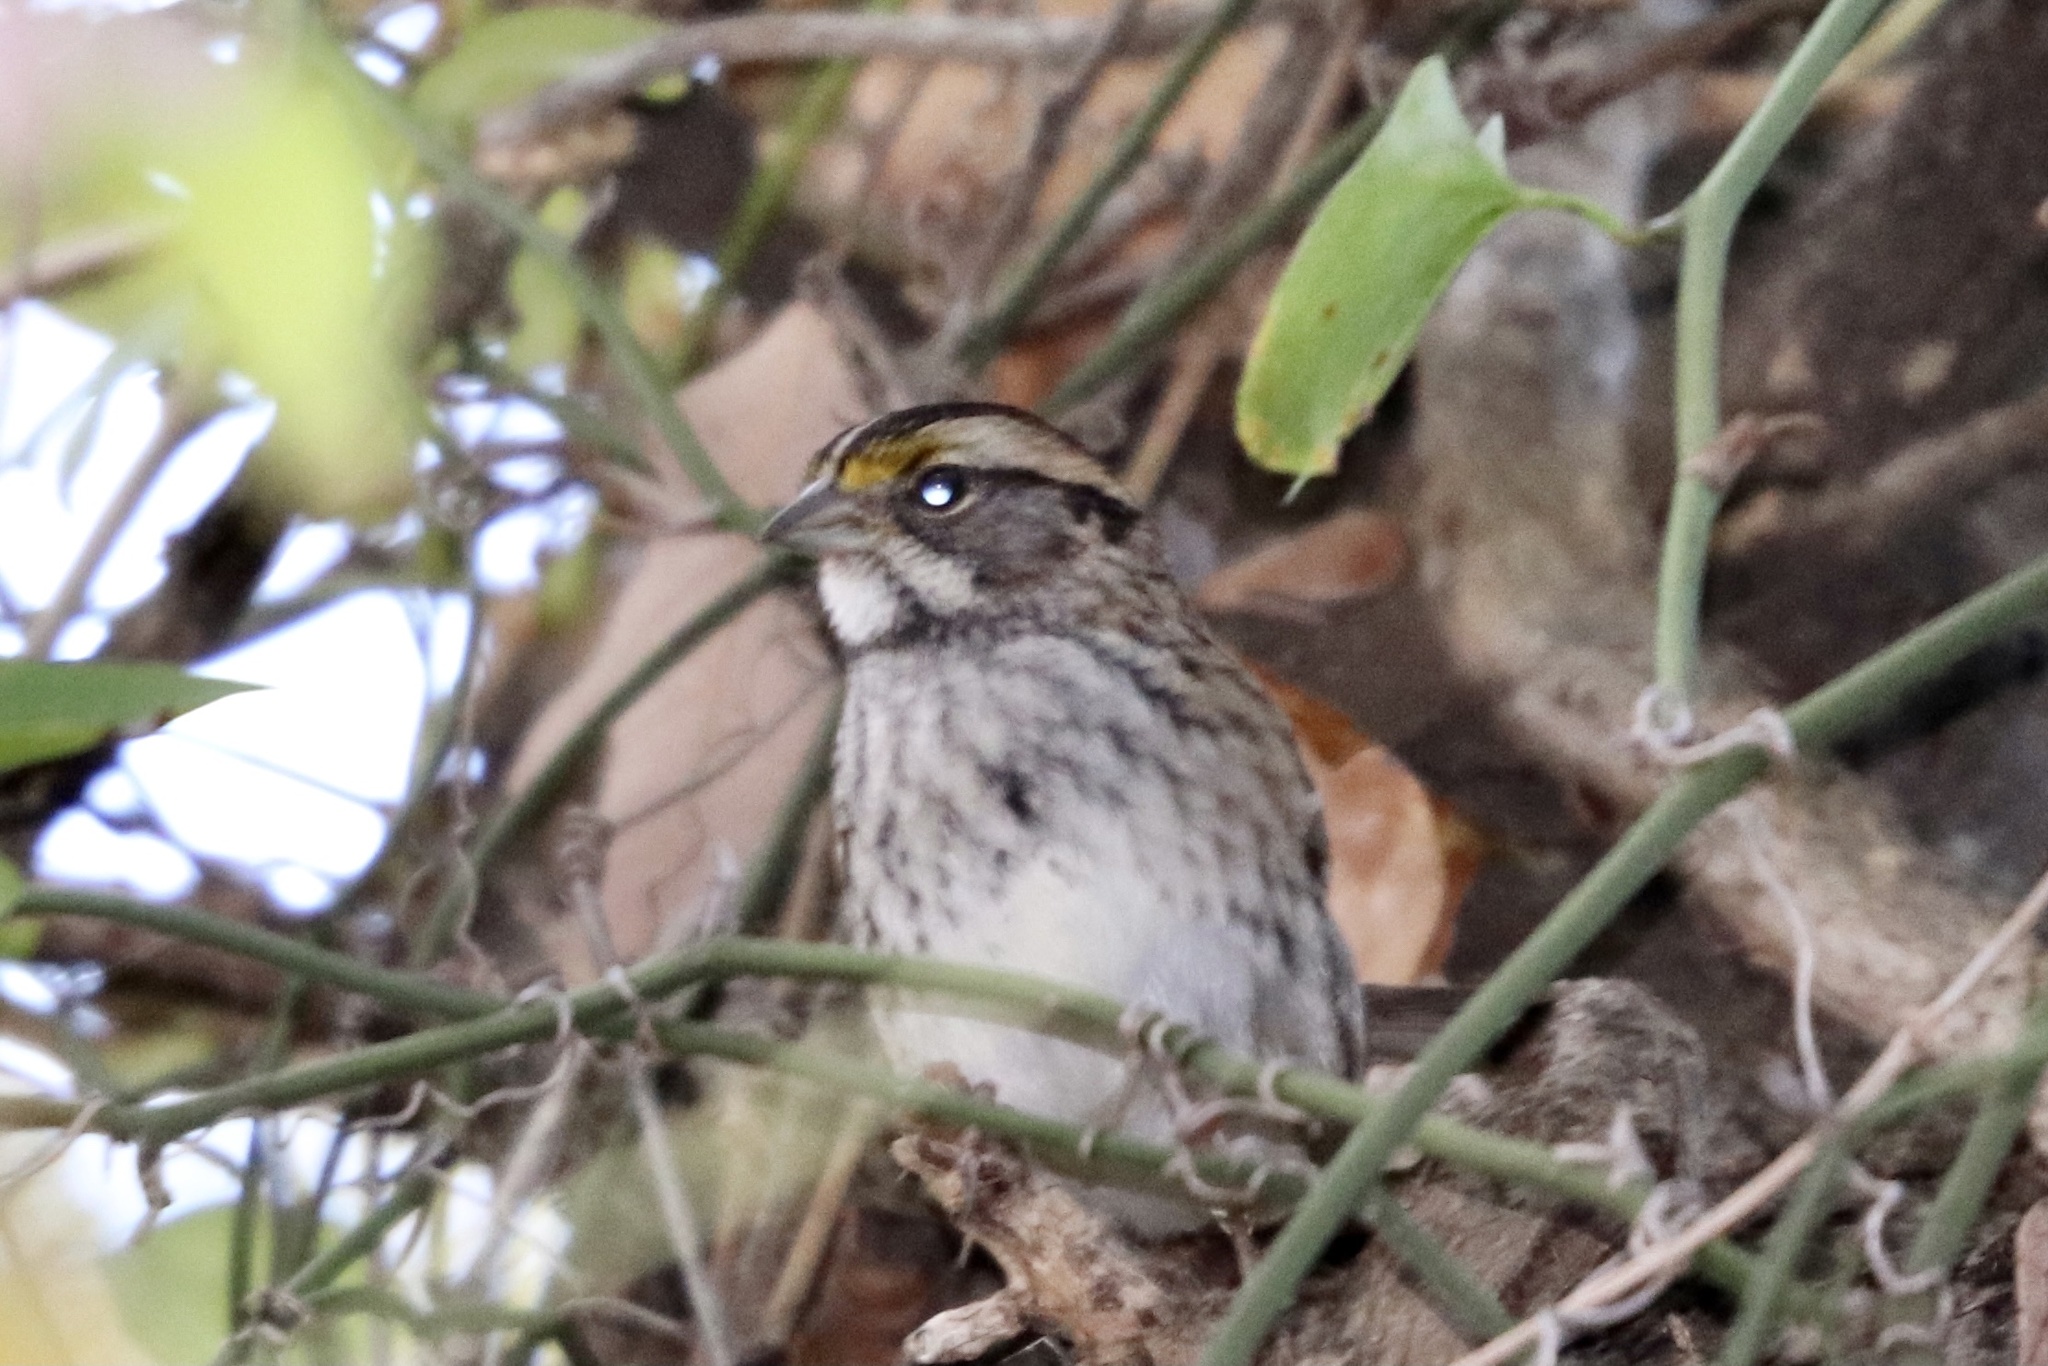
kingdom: Animalia
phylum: Chordata
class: Aves
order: Passeriformes
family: Passerellidae
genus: Zonotrichia
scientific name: Zonotrichia albicollis
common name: White-throated sparrow
